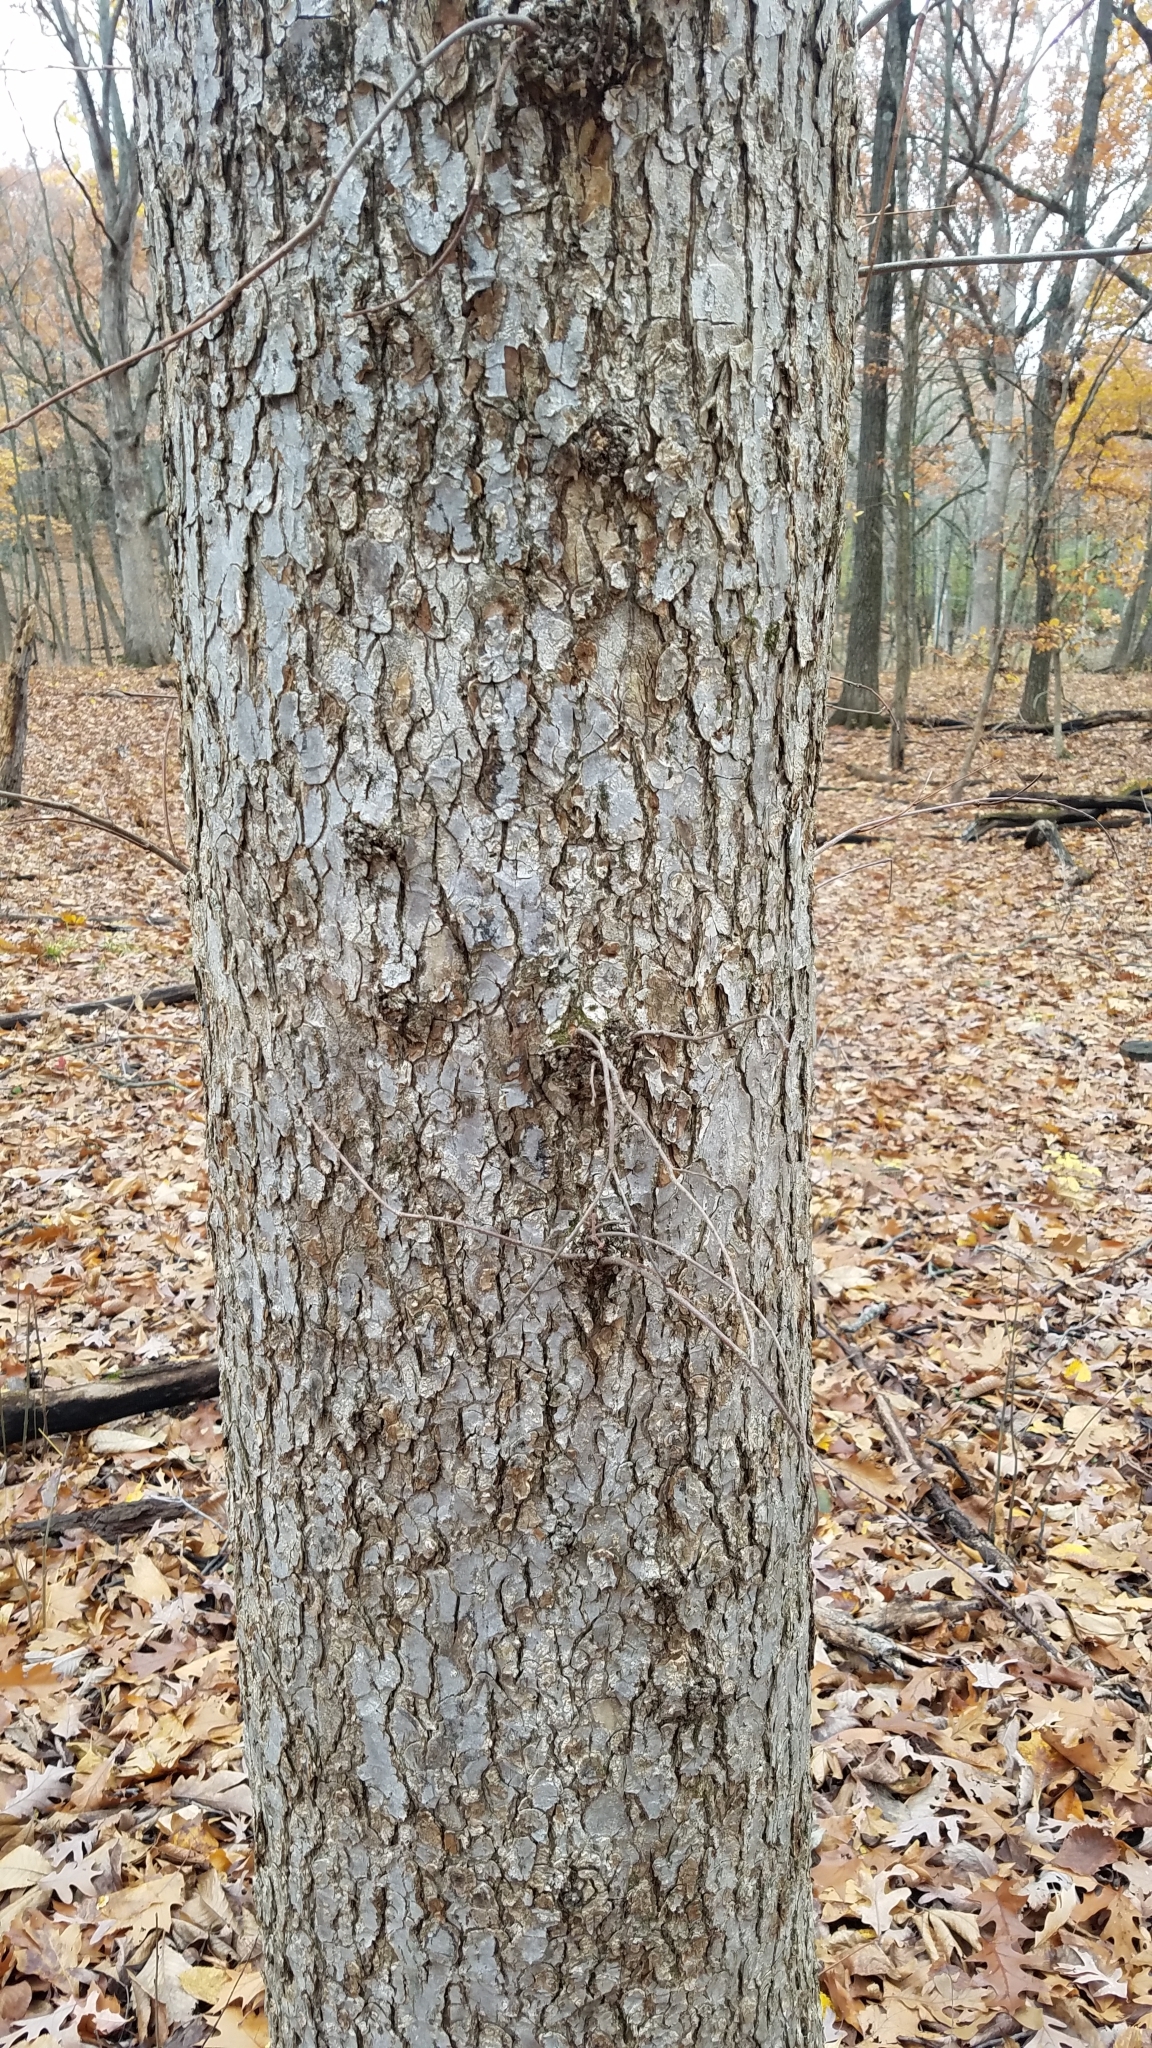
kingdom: Plantae
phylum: Tracheophyta
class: Magnoliopsida
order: Rosales
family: Ulmaceae
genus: Ulmus
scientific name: Ulmus americana
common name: American elm
